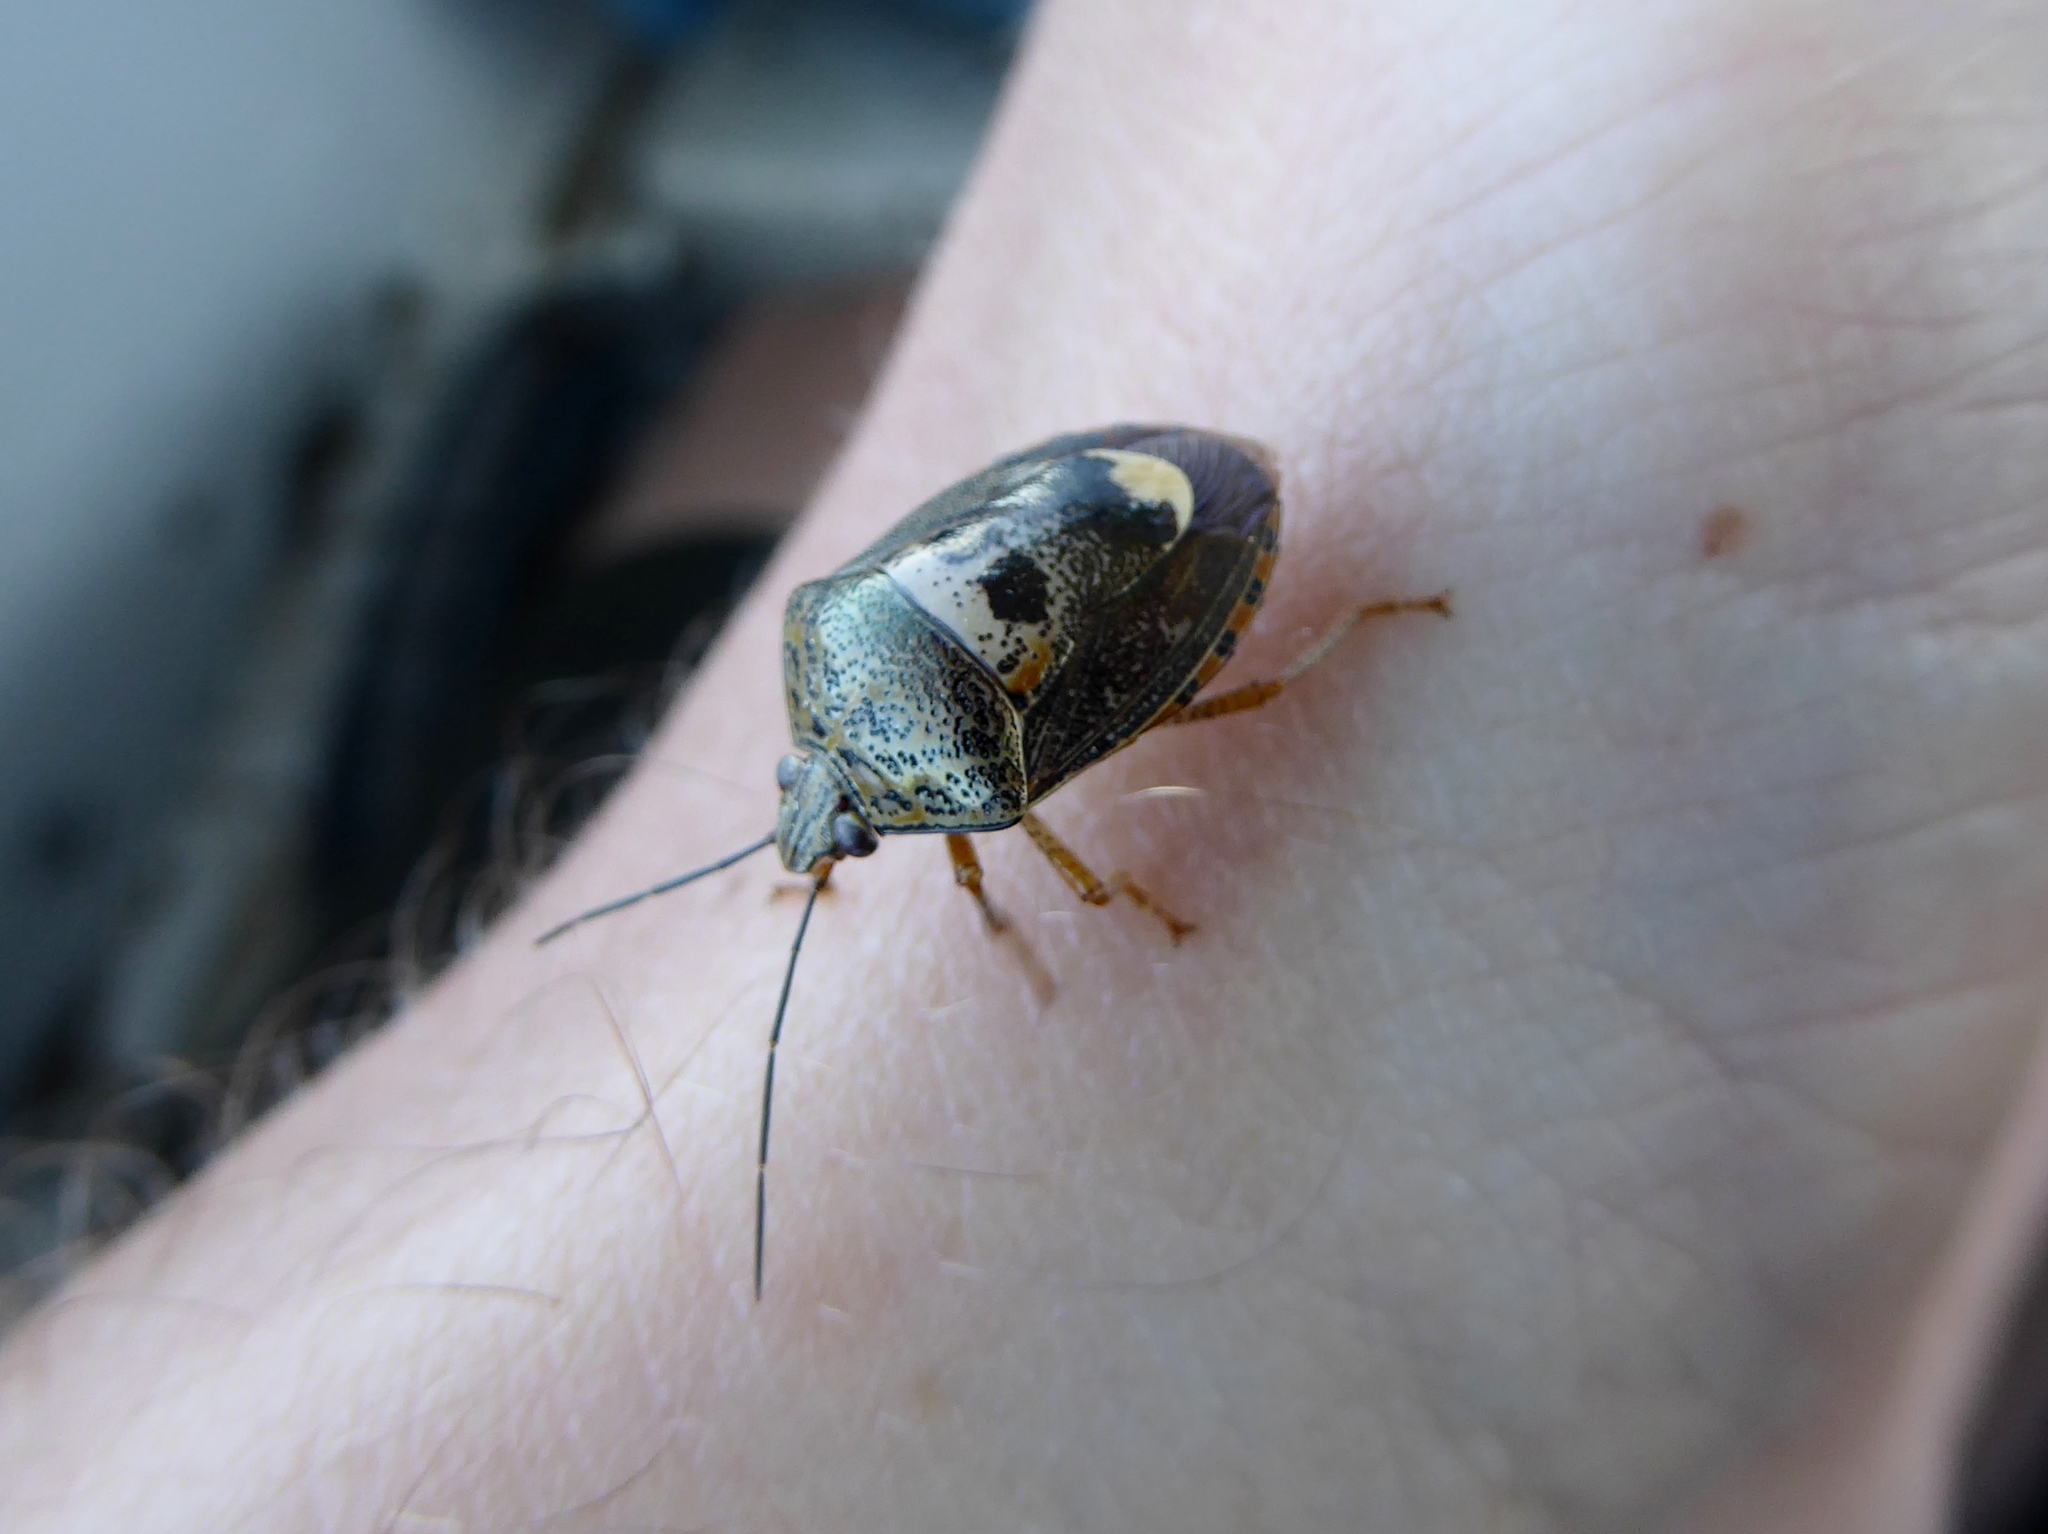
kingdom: Animalia
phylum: Arthropoda
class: Insecta
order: Hemiptera
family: Pentatomidae
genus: Axiagastus
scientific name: Axiagastus rosmarus
